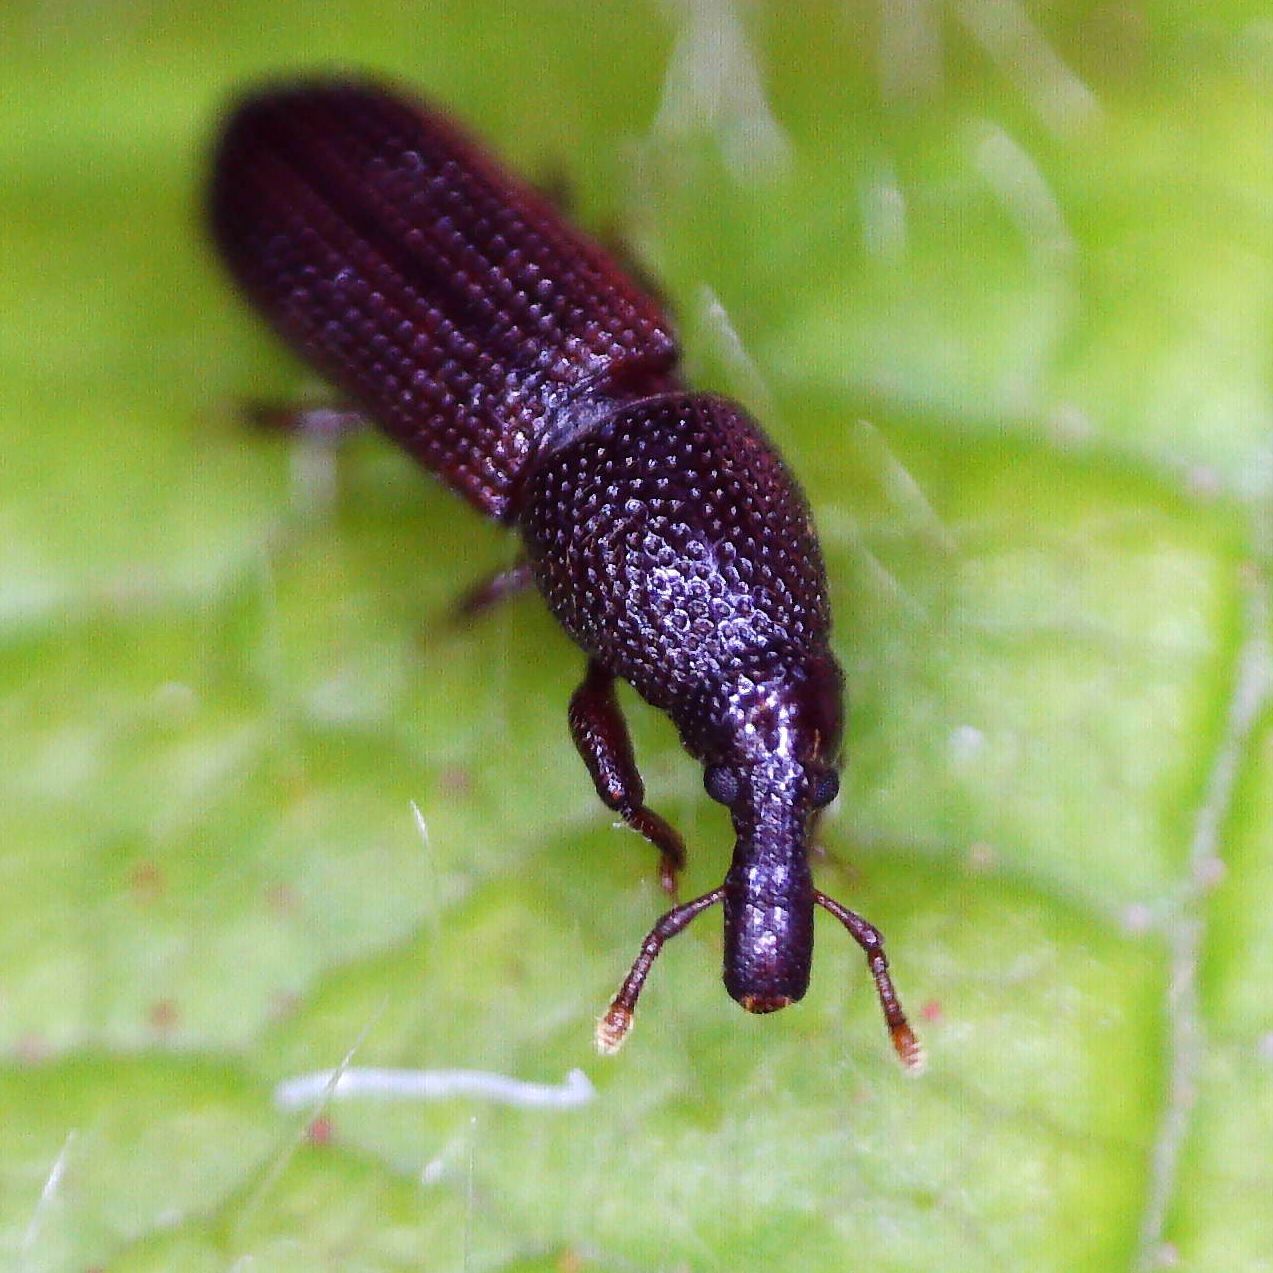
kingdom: Animalia
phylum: Arthropoda
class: Insecta
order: Coleoptera
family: Curculionidae
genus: Pentarthrum
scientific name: Pentarthrum confine
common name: Weevil
